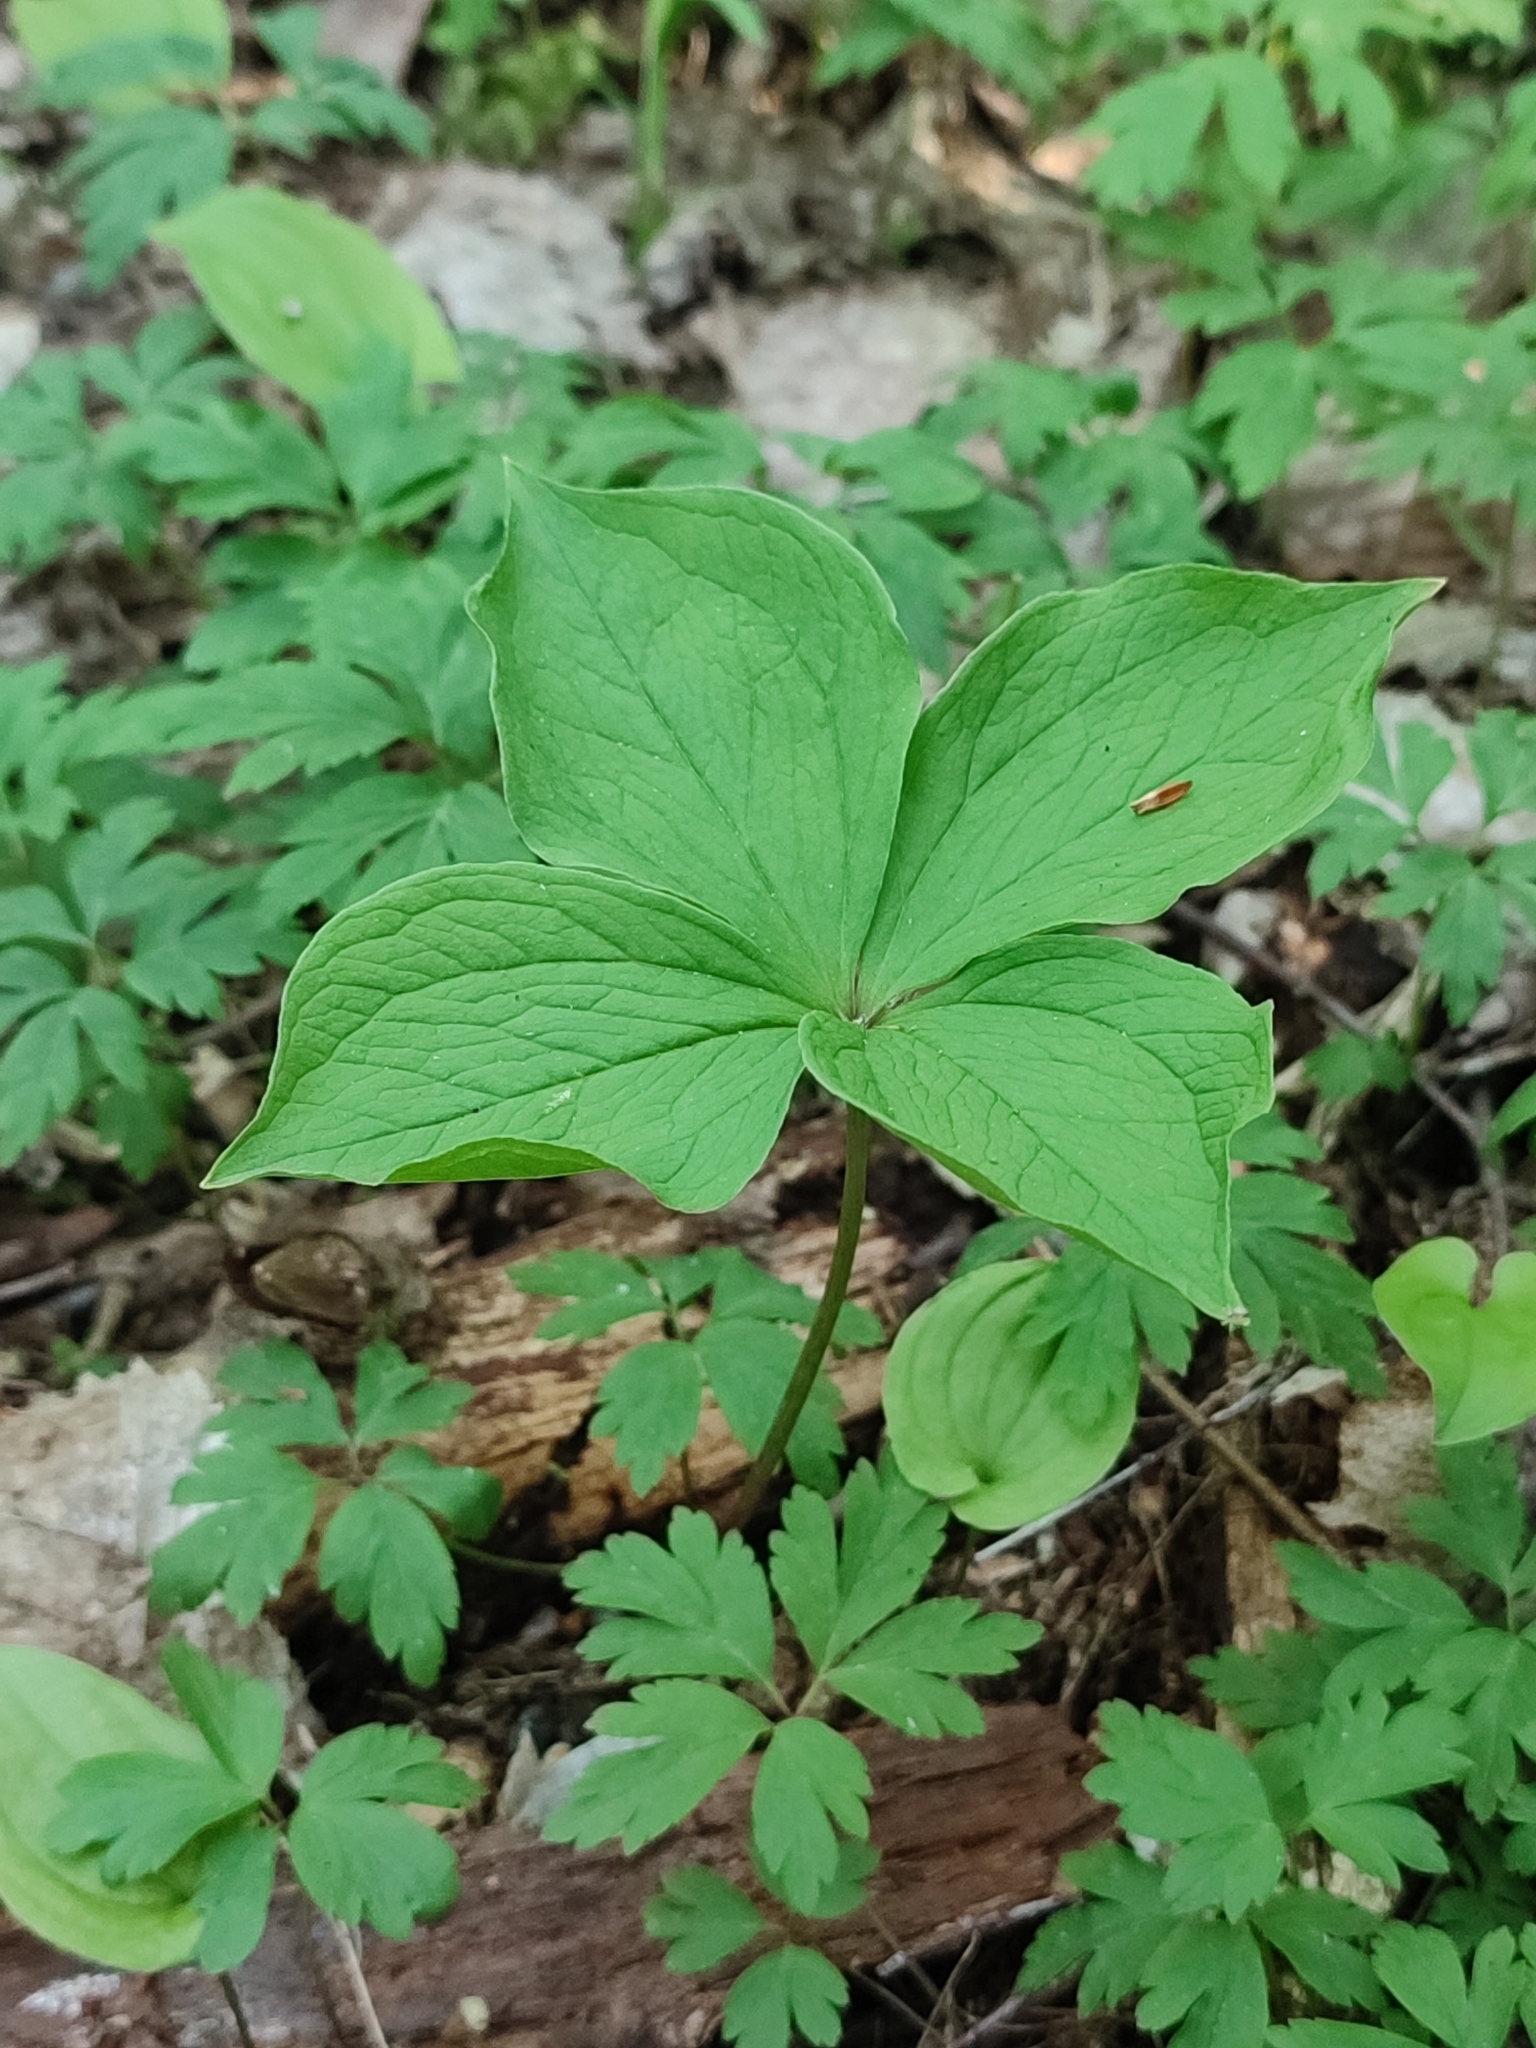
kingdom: Plantae
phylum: Tracheophyta
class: Liliopsida
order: Liliales
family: Melanthiaceae
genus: Paris
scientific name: Paris quadrifolia
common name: Herb-paris
